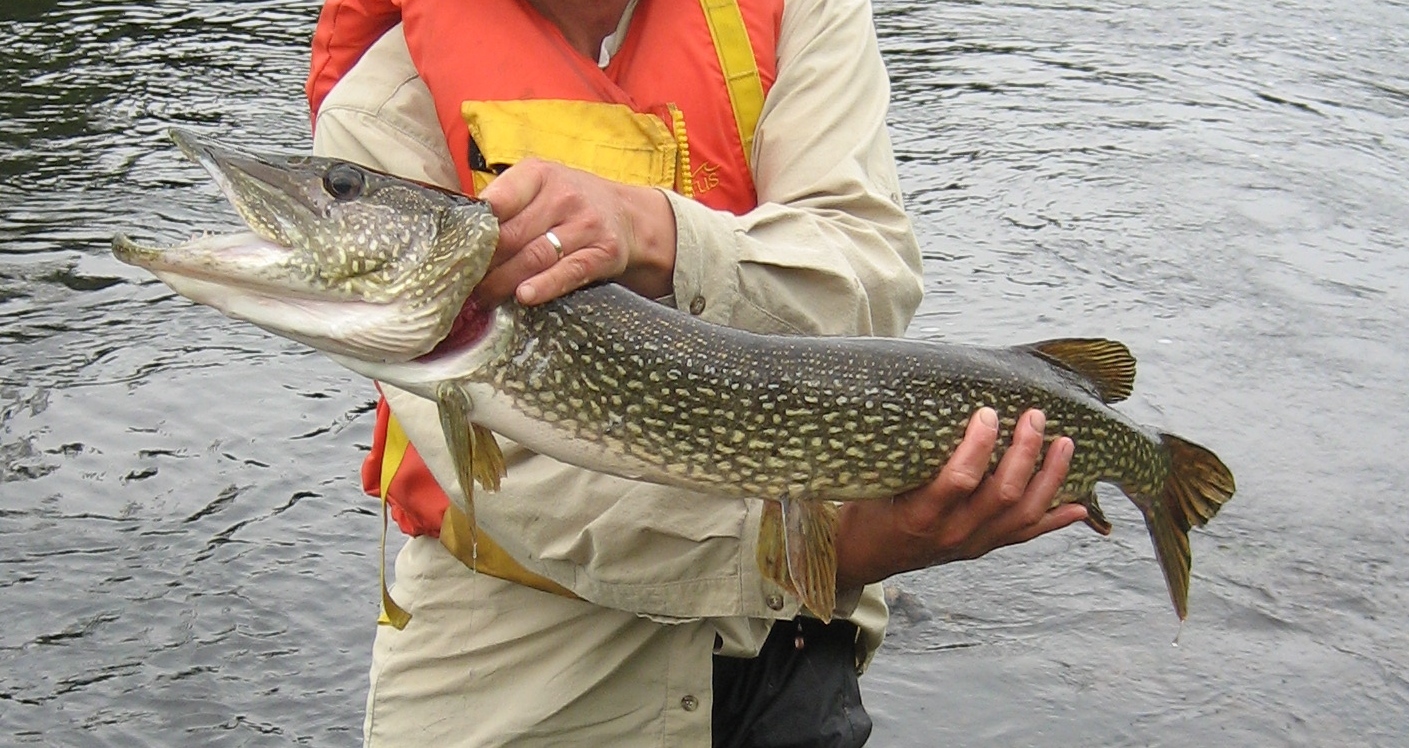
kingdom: Animalia
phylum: Chordata
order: Esociformes
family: Esocidae
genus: Esox
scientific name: Esox lucius
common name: Northern pike
